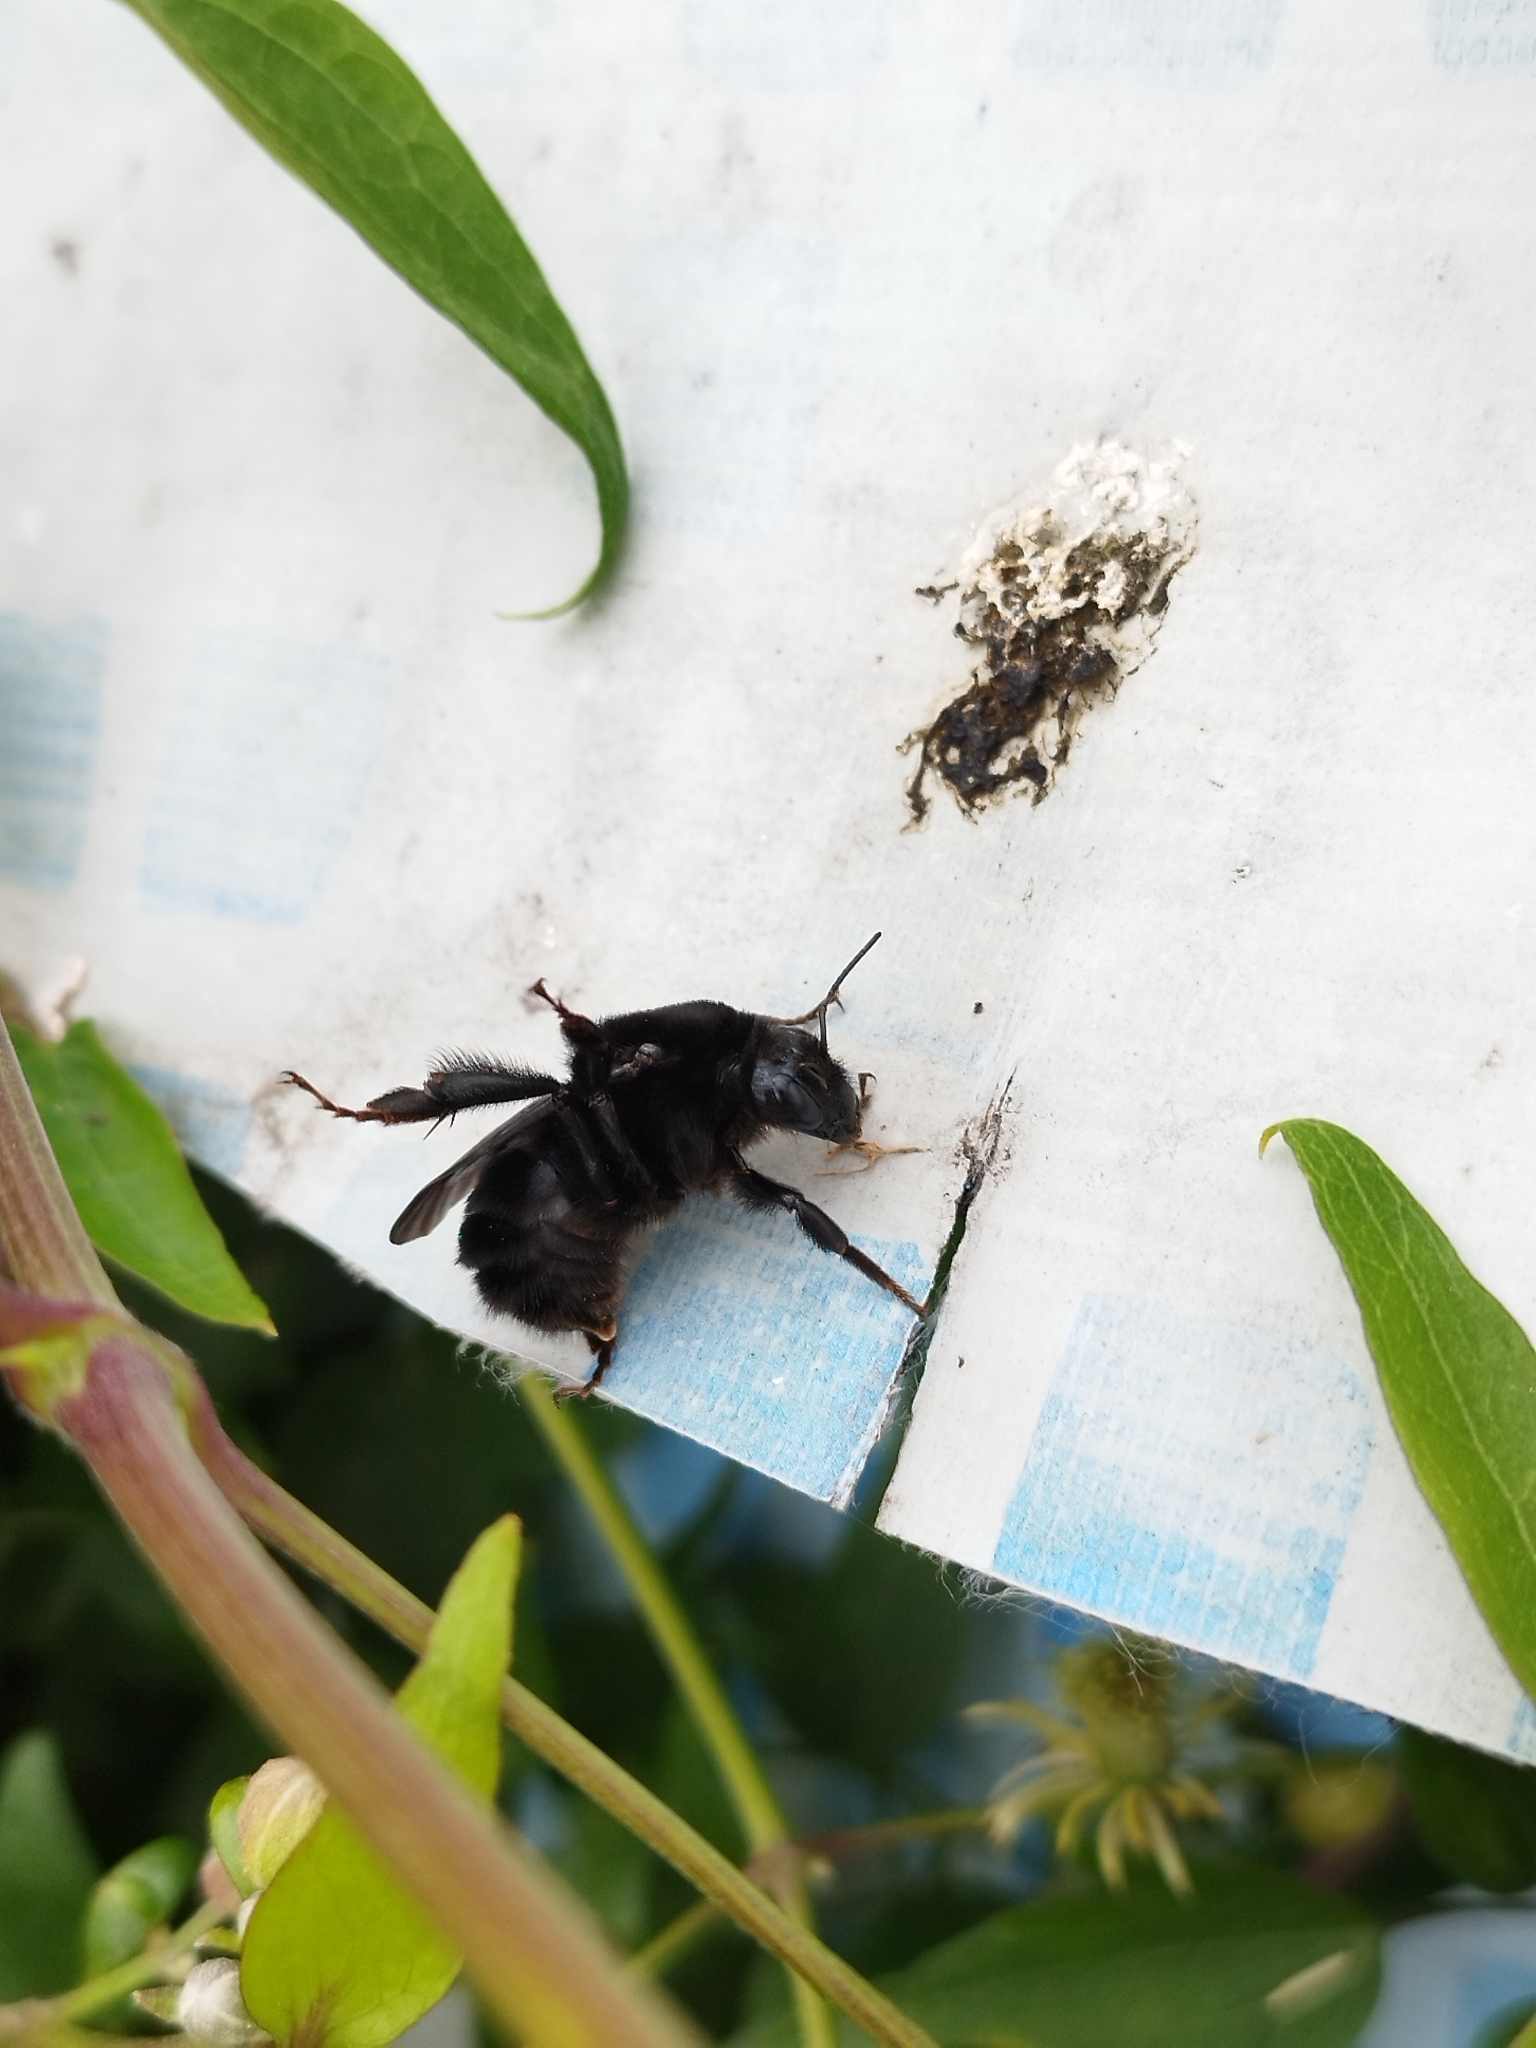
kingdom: Animalia
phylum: Arthropoda
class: Insecta
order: Hymenoptera
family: Apidae
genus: Bombus
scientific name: Bombus pauloensis
